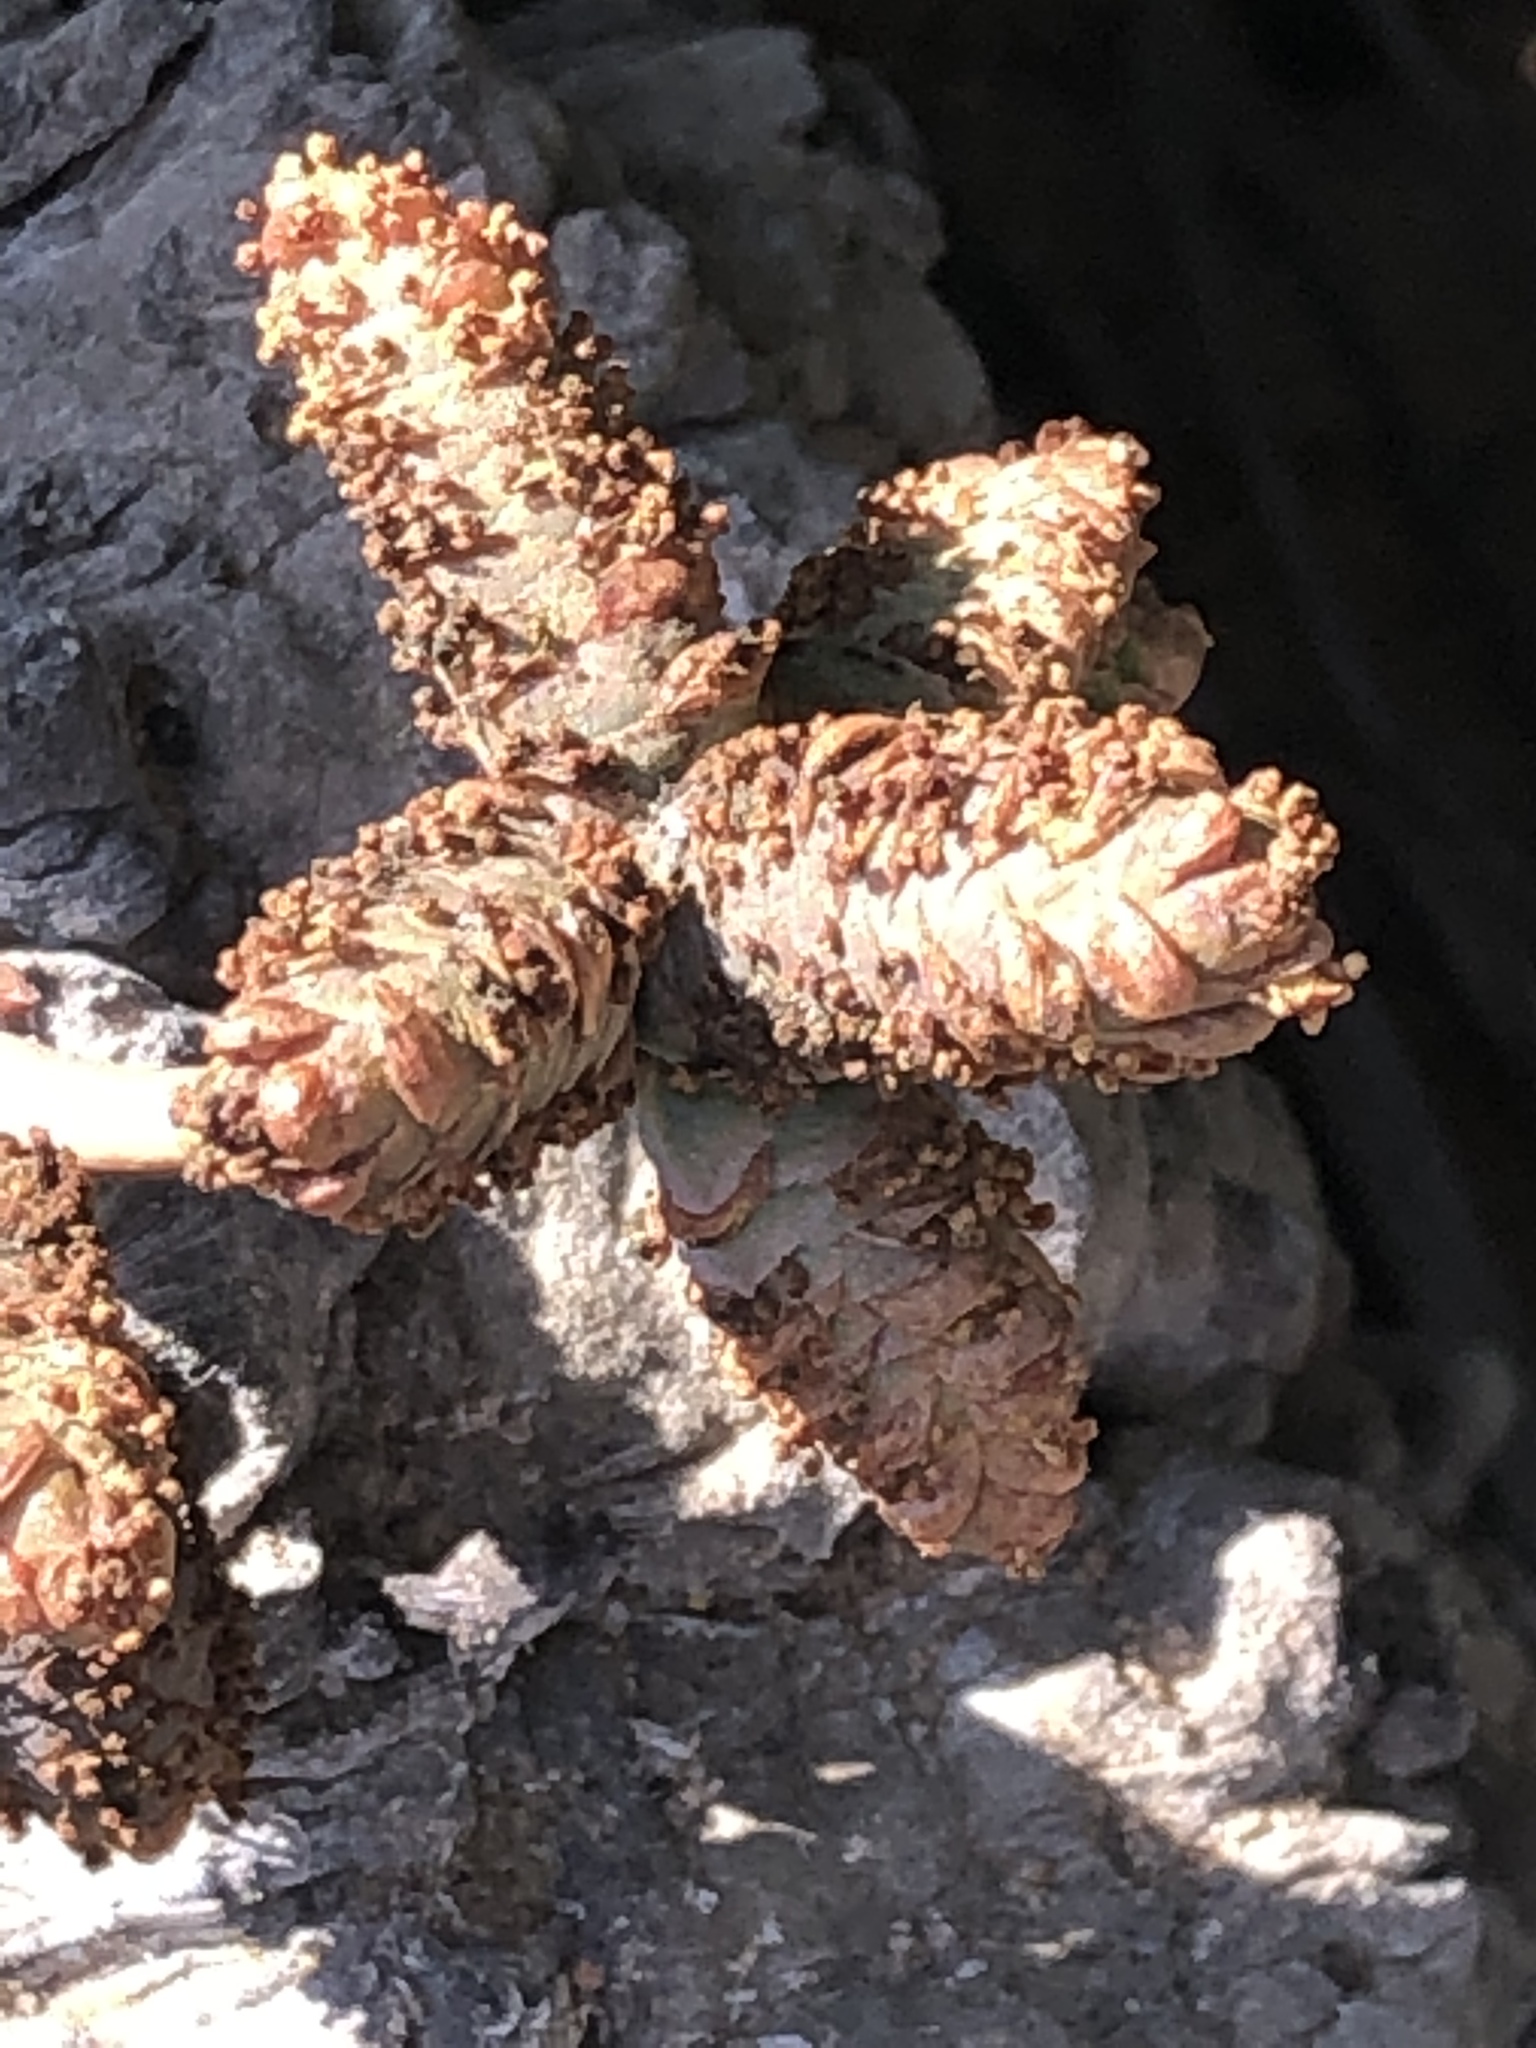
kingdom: Plantae
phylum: Tracheophyta
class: Gnetopsida
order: Welwitschiales
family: Welwitschiaceae
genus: Welwitschia
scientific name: Welwitschia mirabilis
